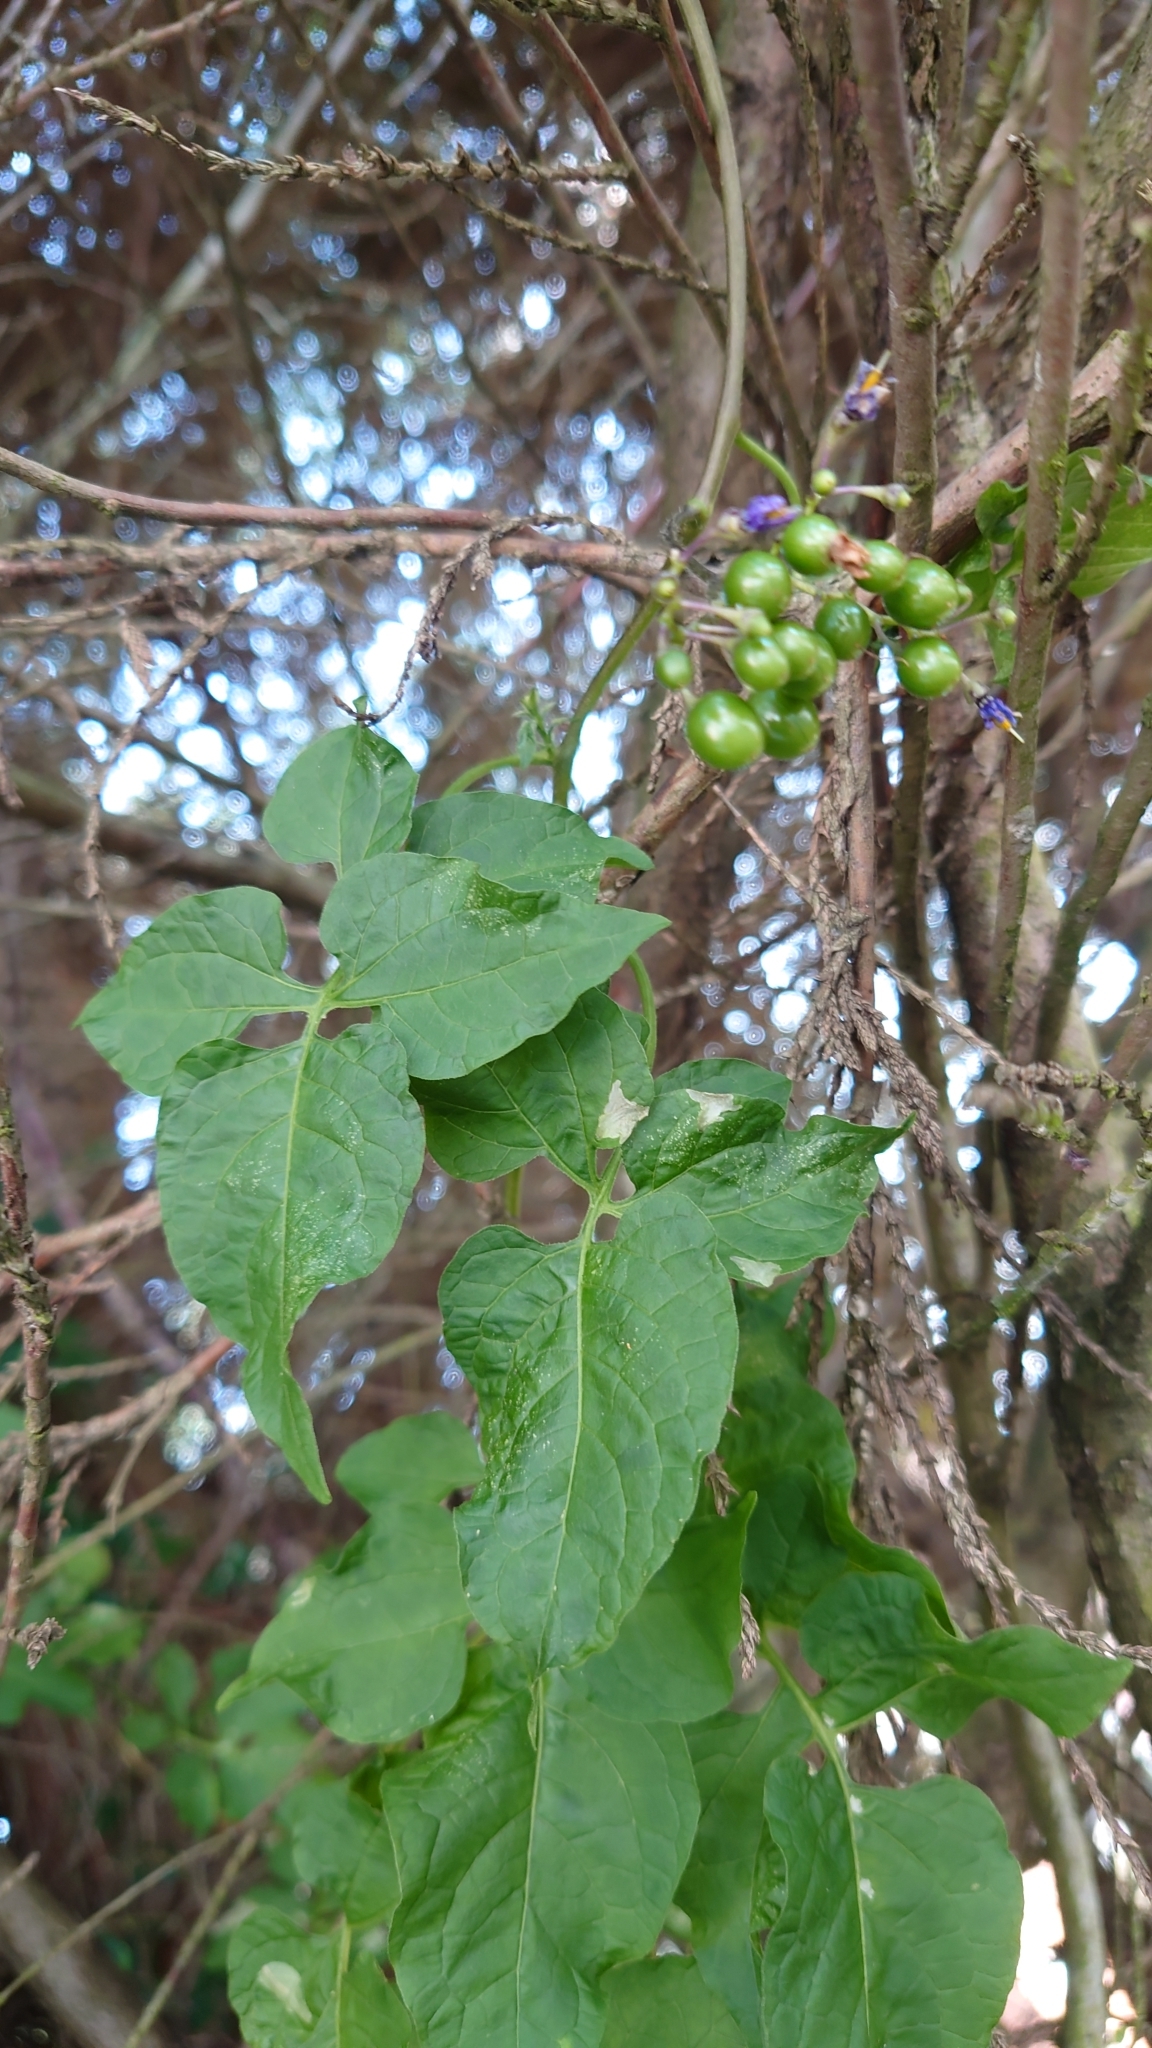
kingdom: Plantae
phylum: Tracheophyta
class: Magnoliopsida
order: Solanales
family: Solanaceae
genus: Solanum
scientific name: Solanum dulcamara
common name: Climbing nightshade
